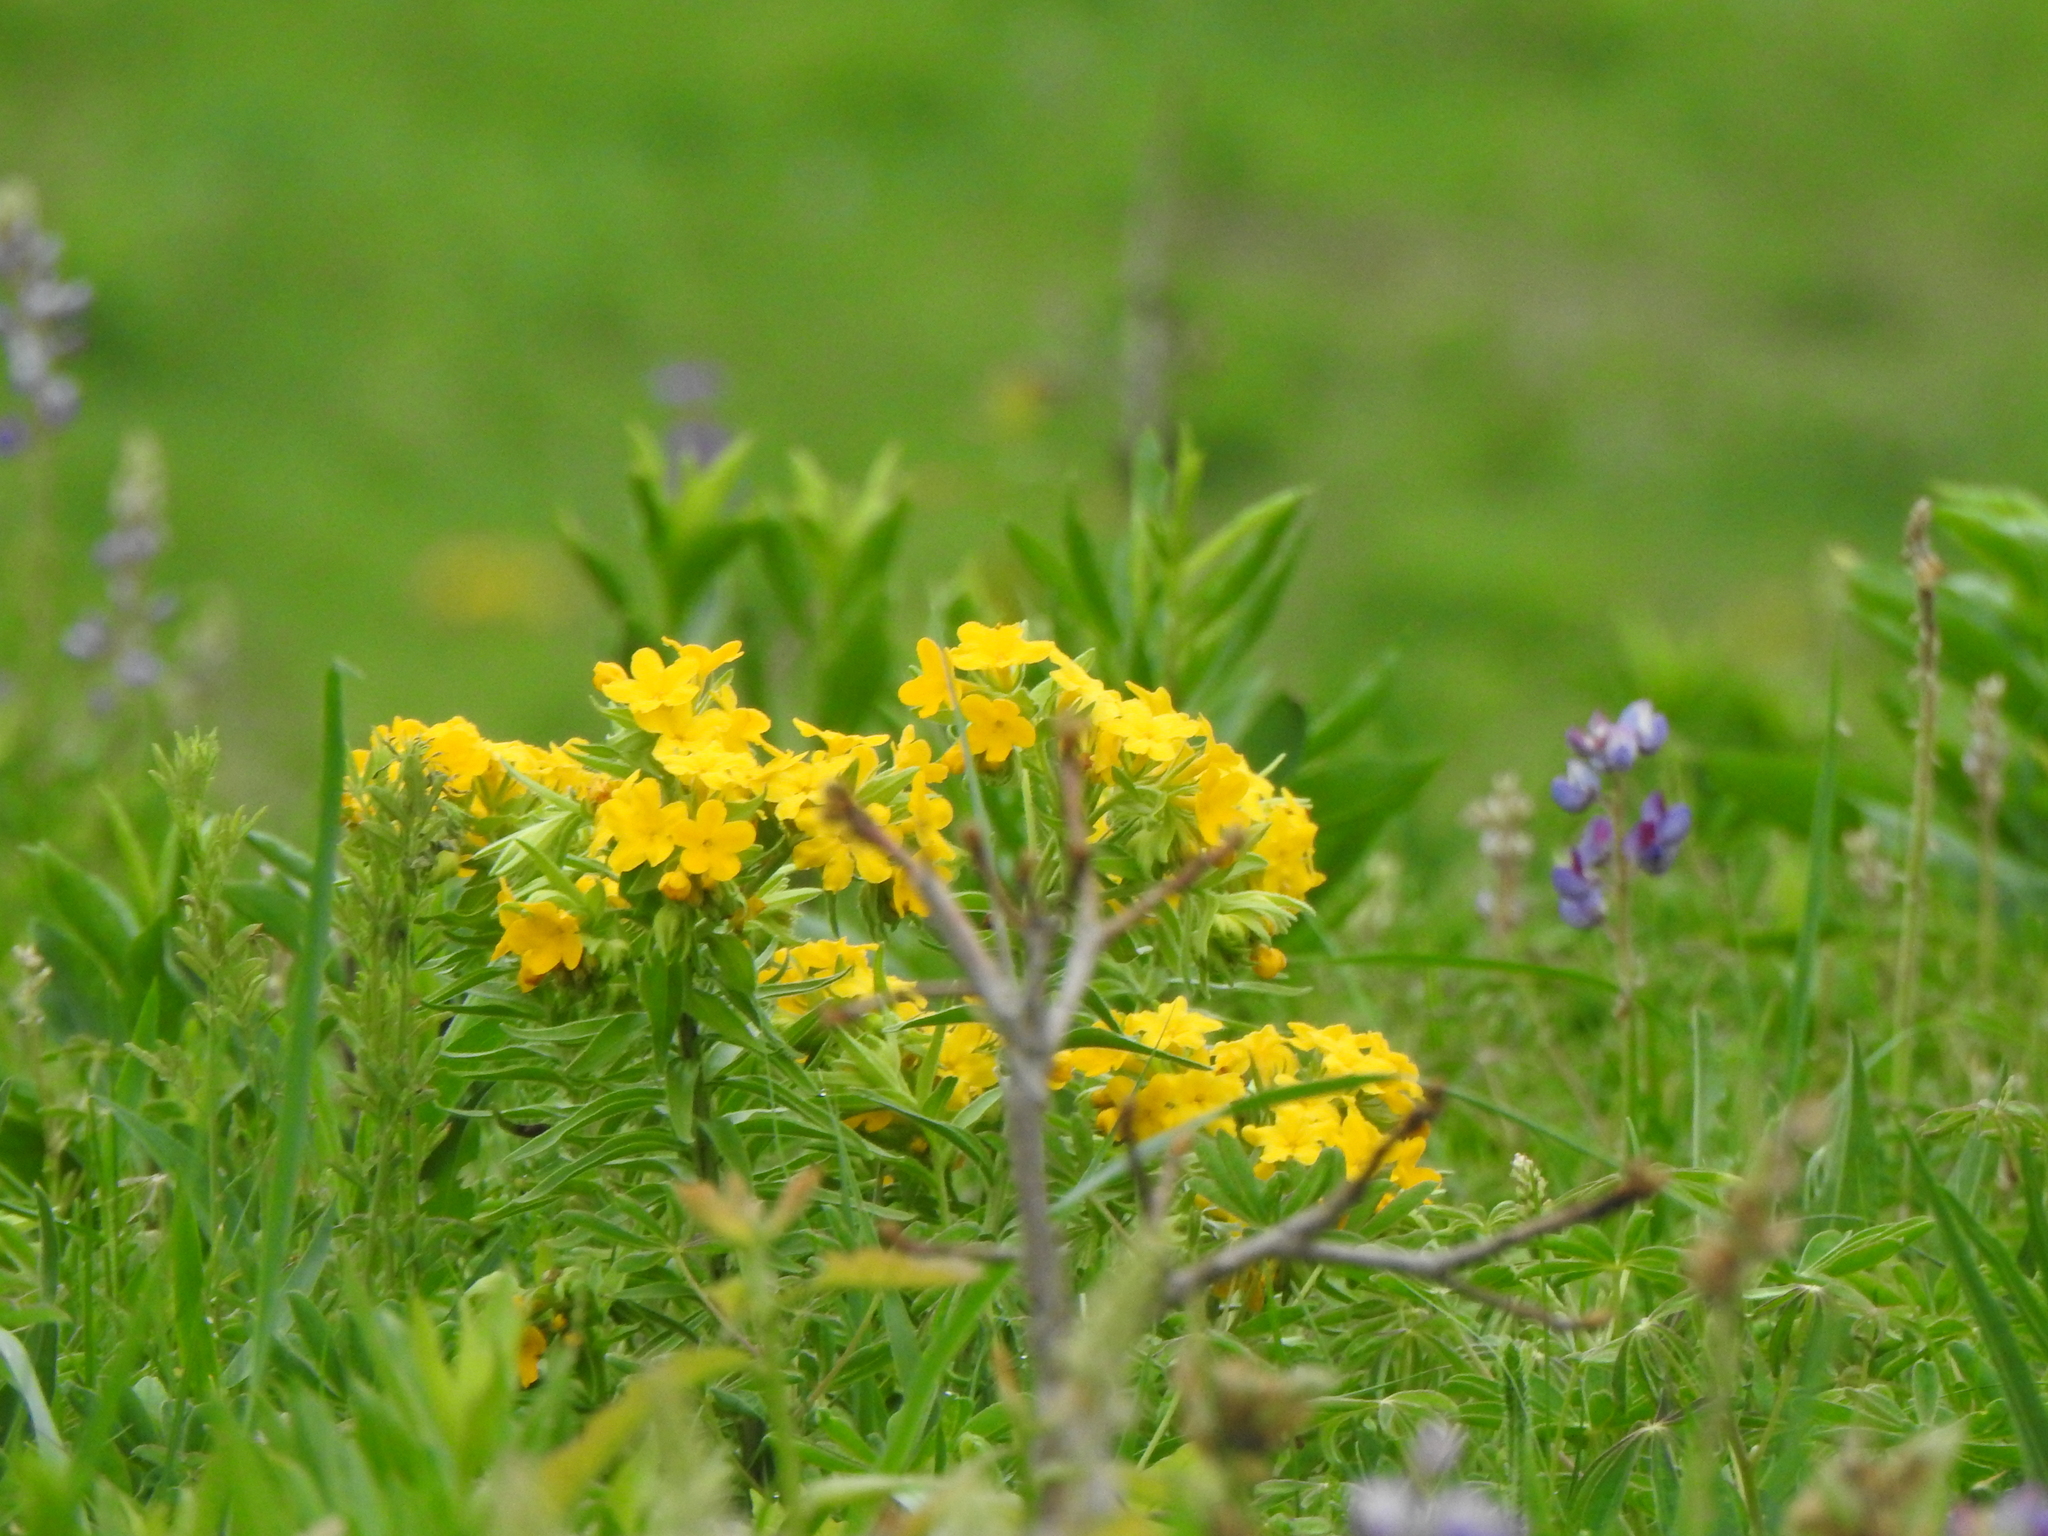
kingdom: Plantae
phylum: Tracheophyta
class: Magnoliopsida
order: Boraginales
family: Boraginaceae
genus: Lithospermum
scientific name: Lithospermum caroliniense
